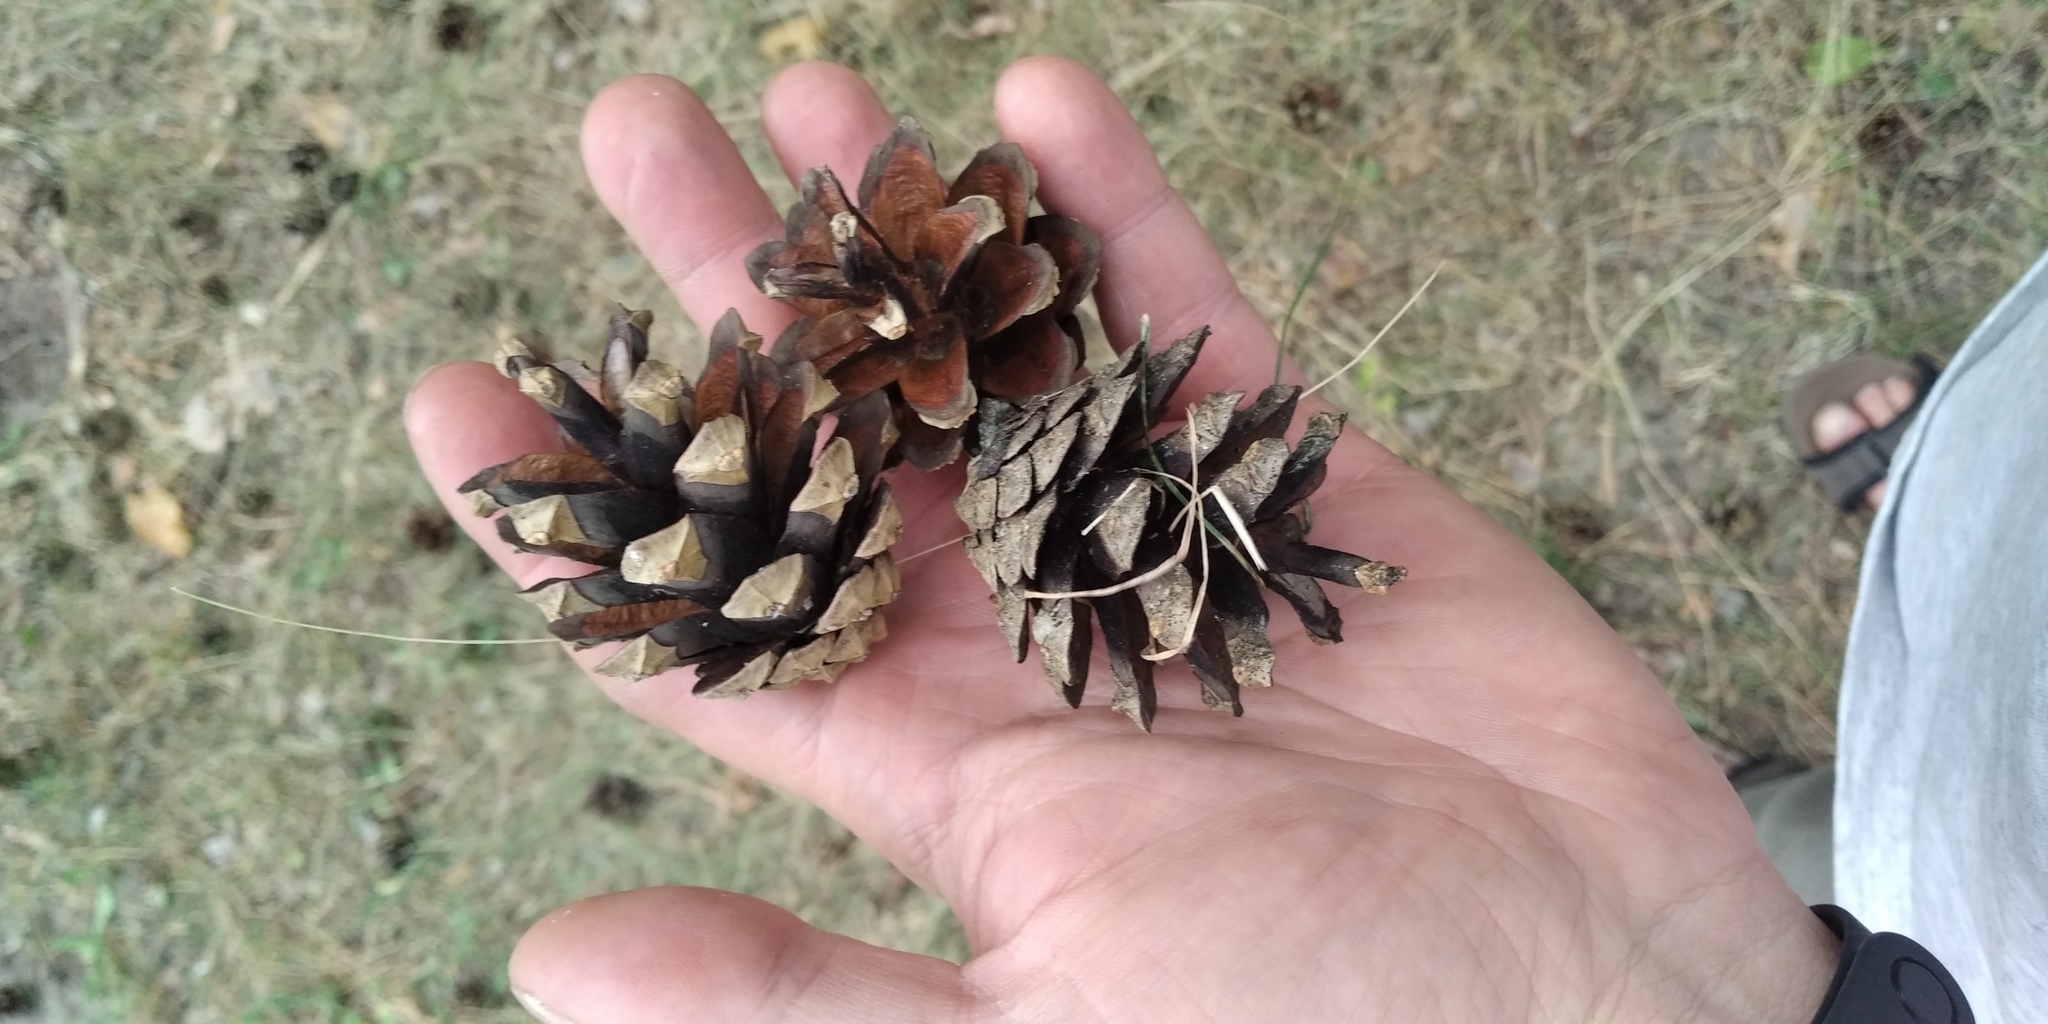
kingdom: Plantae
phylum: Tracheophyta
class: Pinopsida
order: Pinales
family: Pinaceae
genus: Pinus
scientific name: Pinus sylvestris
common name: Scots pine
